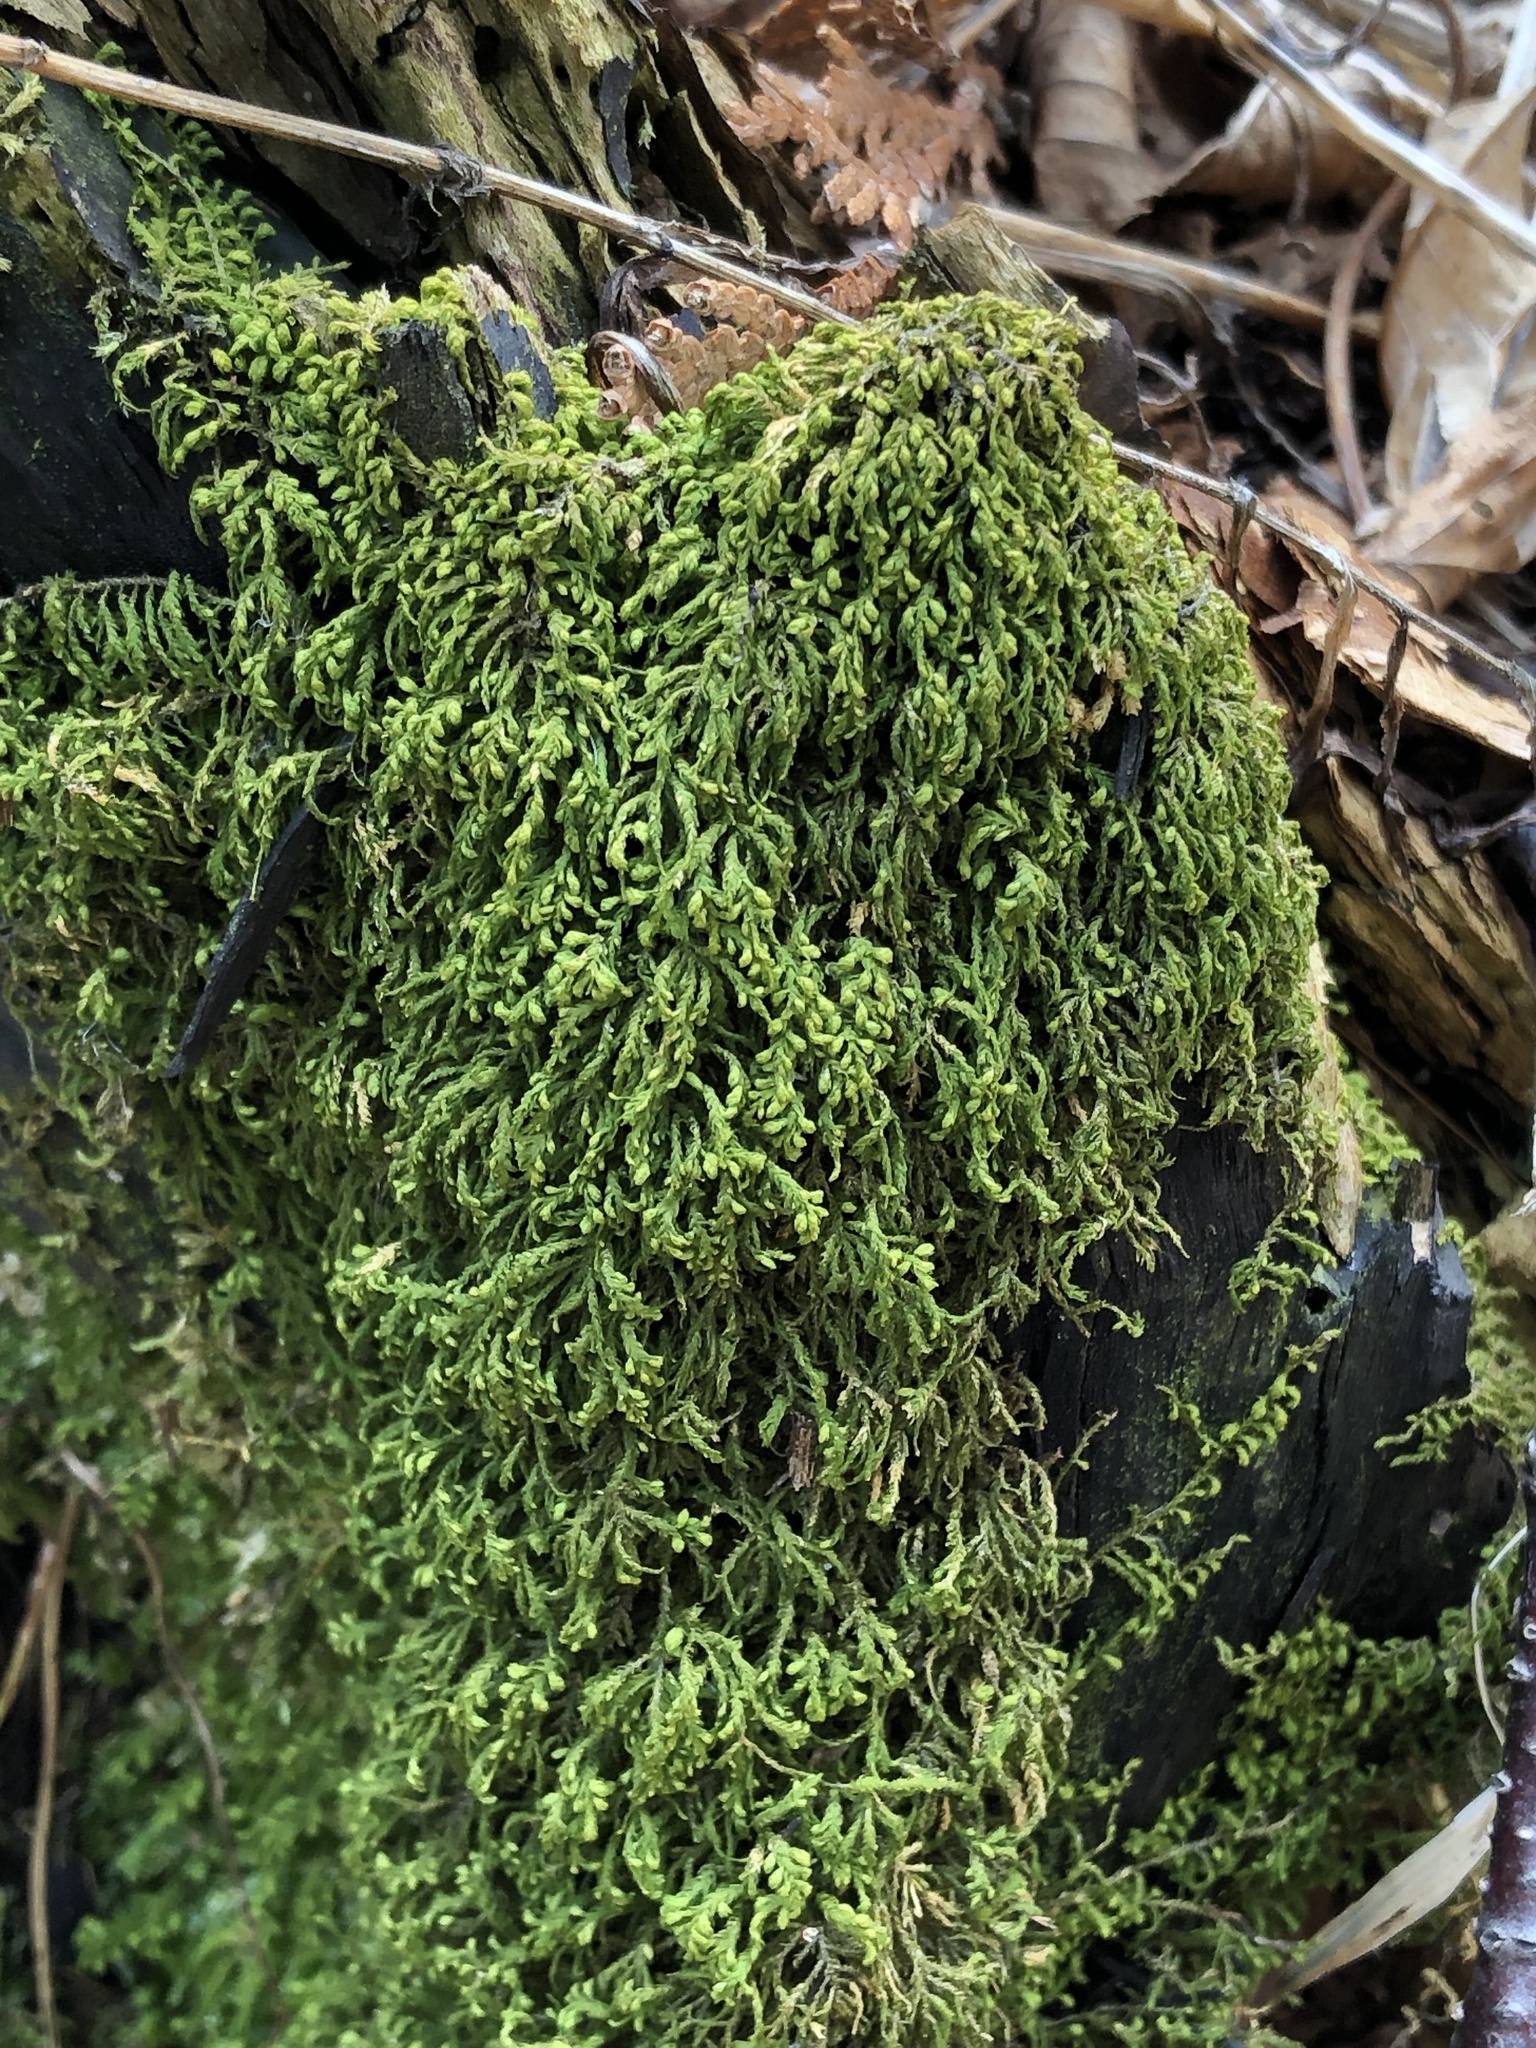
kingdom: Plantae
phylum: Bryophyta
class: Bryopsida
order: Hypnales
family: Neckeraceae
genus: Pseudanomodon
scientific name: Pseudanomodon attenuatus
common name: Tree-skirt moss
